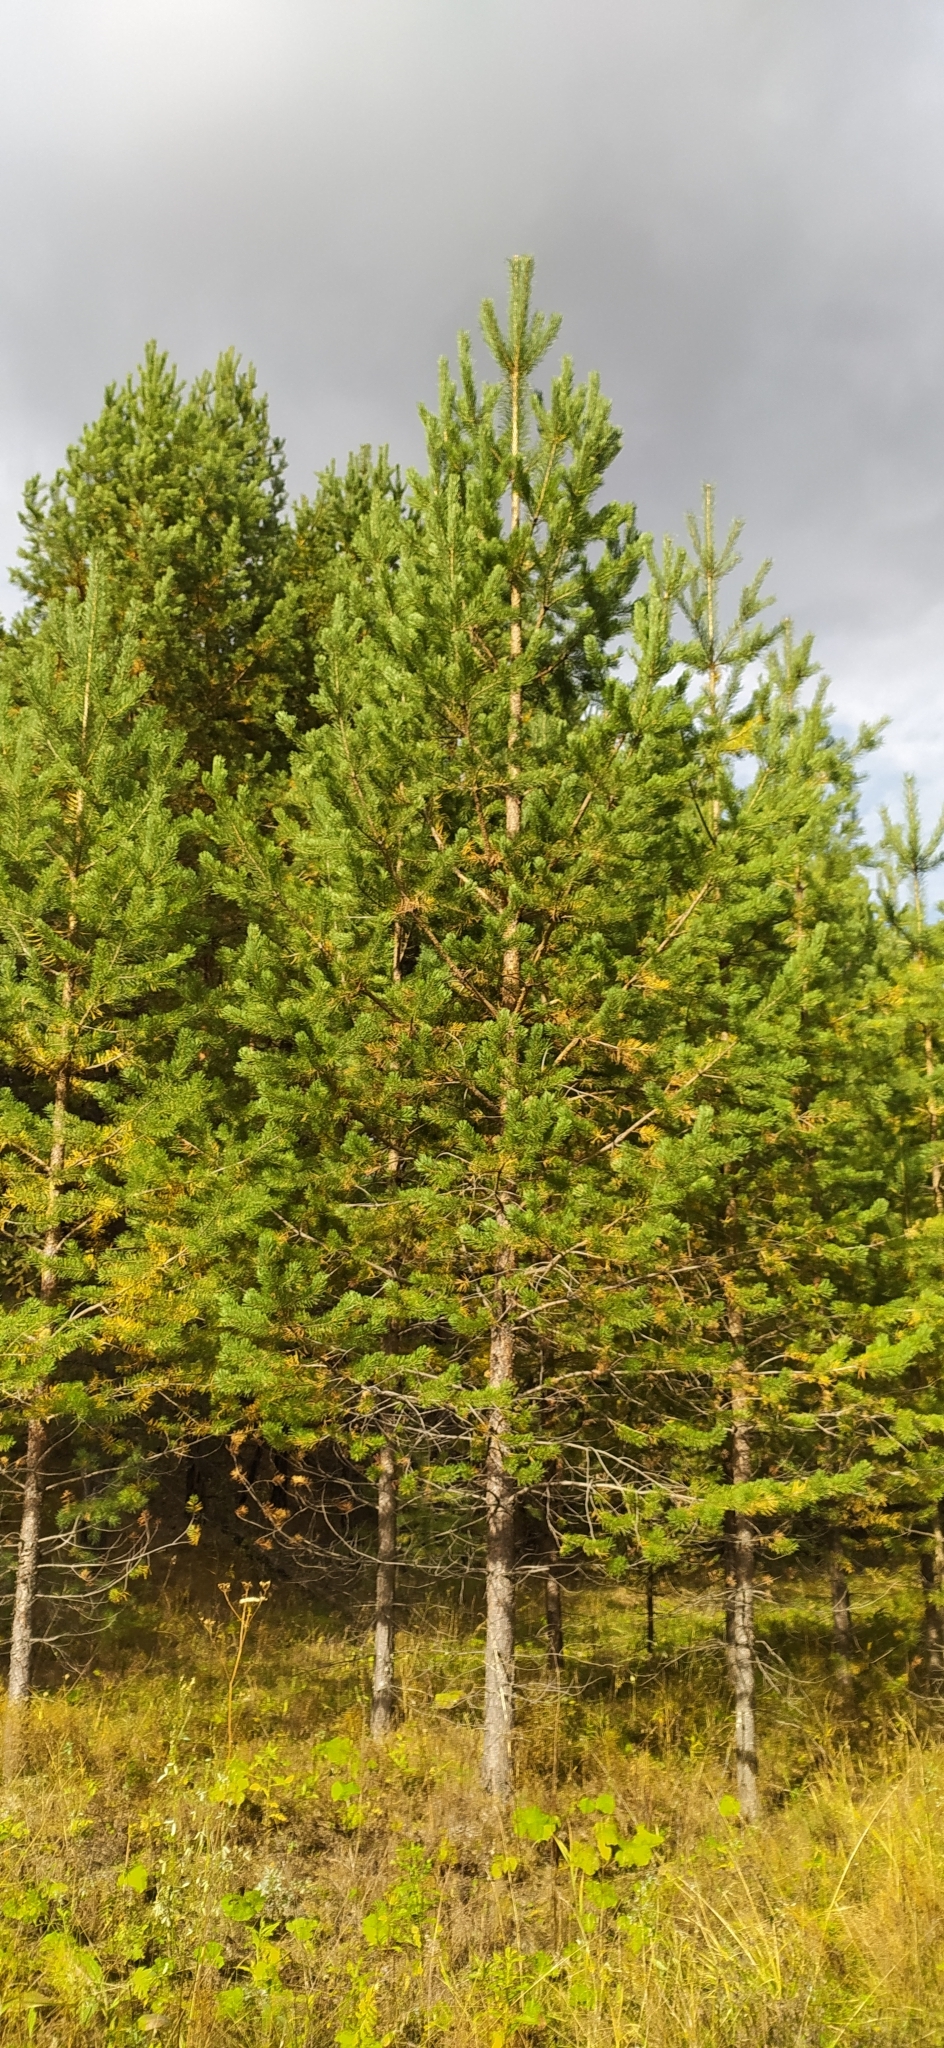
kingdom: Plantae
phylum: Tracheophyta
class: Pinopsida
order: Pinales
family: Pinaceae
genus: Pinus
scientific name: Pinus sylvestris
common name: Scots pine
